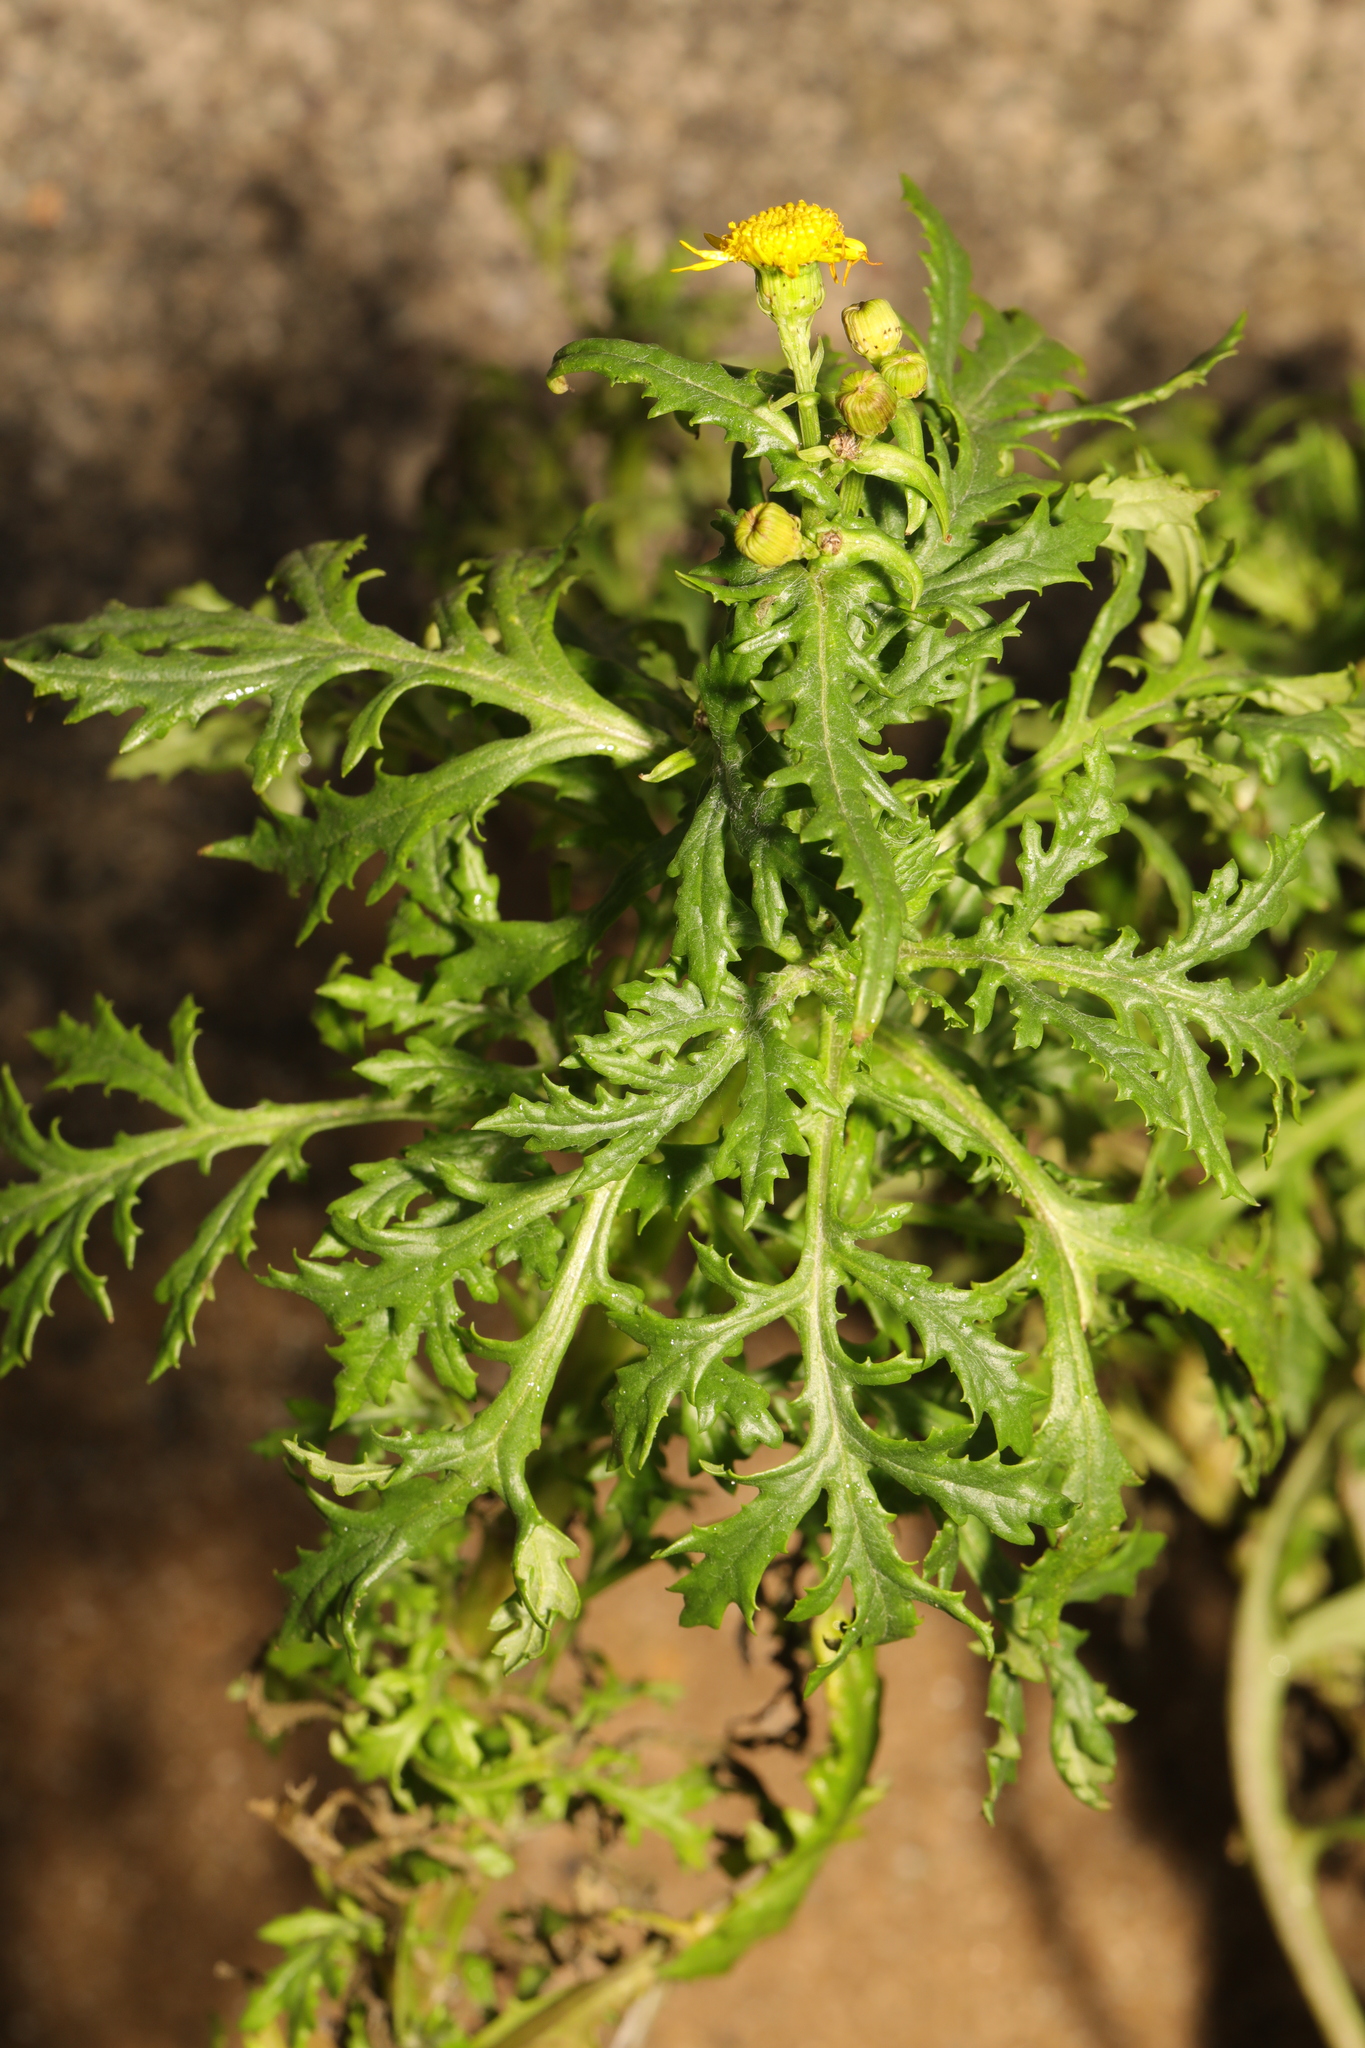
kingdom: Plantae
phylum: Tracheophyta
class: Magnoliopsida
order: Asterales
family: Asteraceae
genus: Senecio
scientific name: Senecio squalidus
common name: Oxford ragwort
